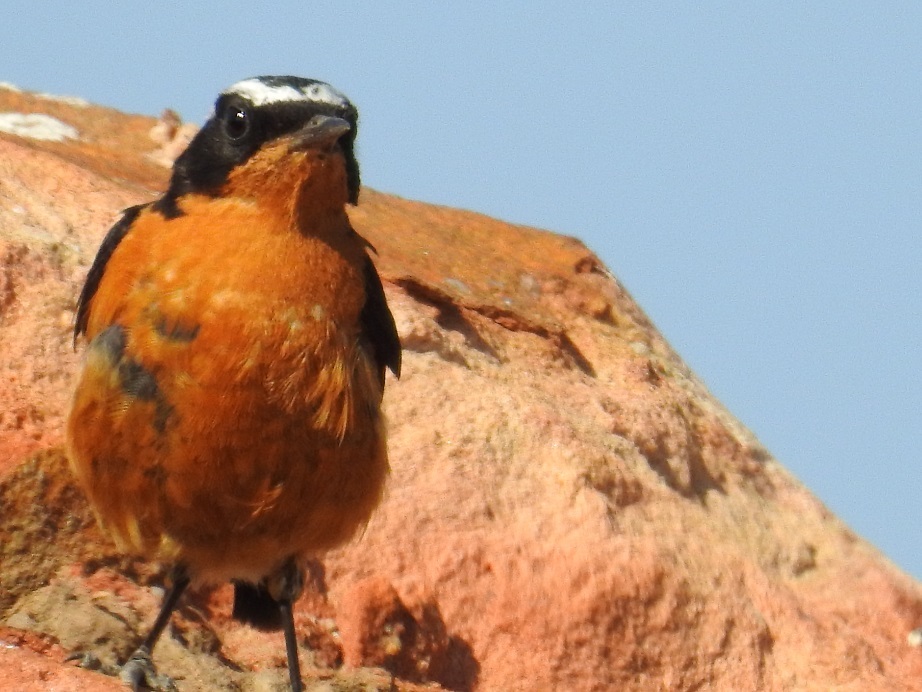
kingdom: Animalia
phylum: Chordata
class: Aves
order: Passeriformes
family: Muscicapidae
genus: Phoenicurus
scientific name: Phoenicurus moussieri
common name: Moussier's redstart
